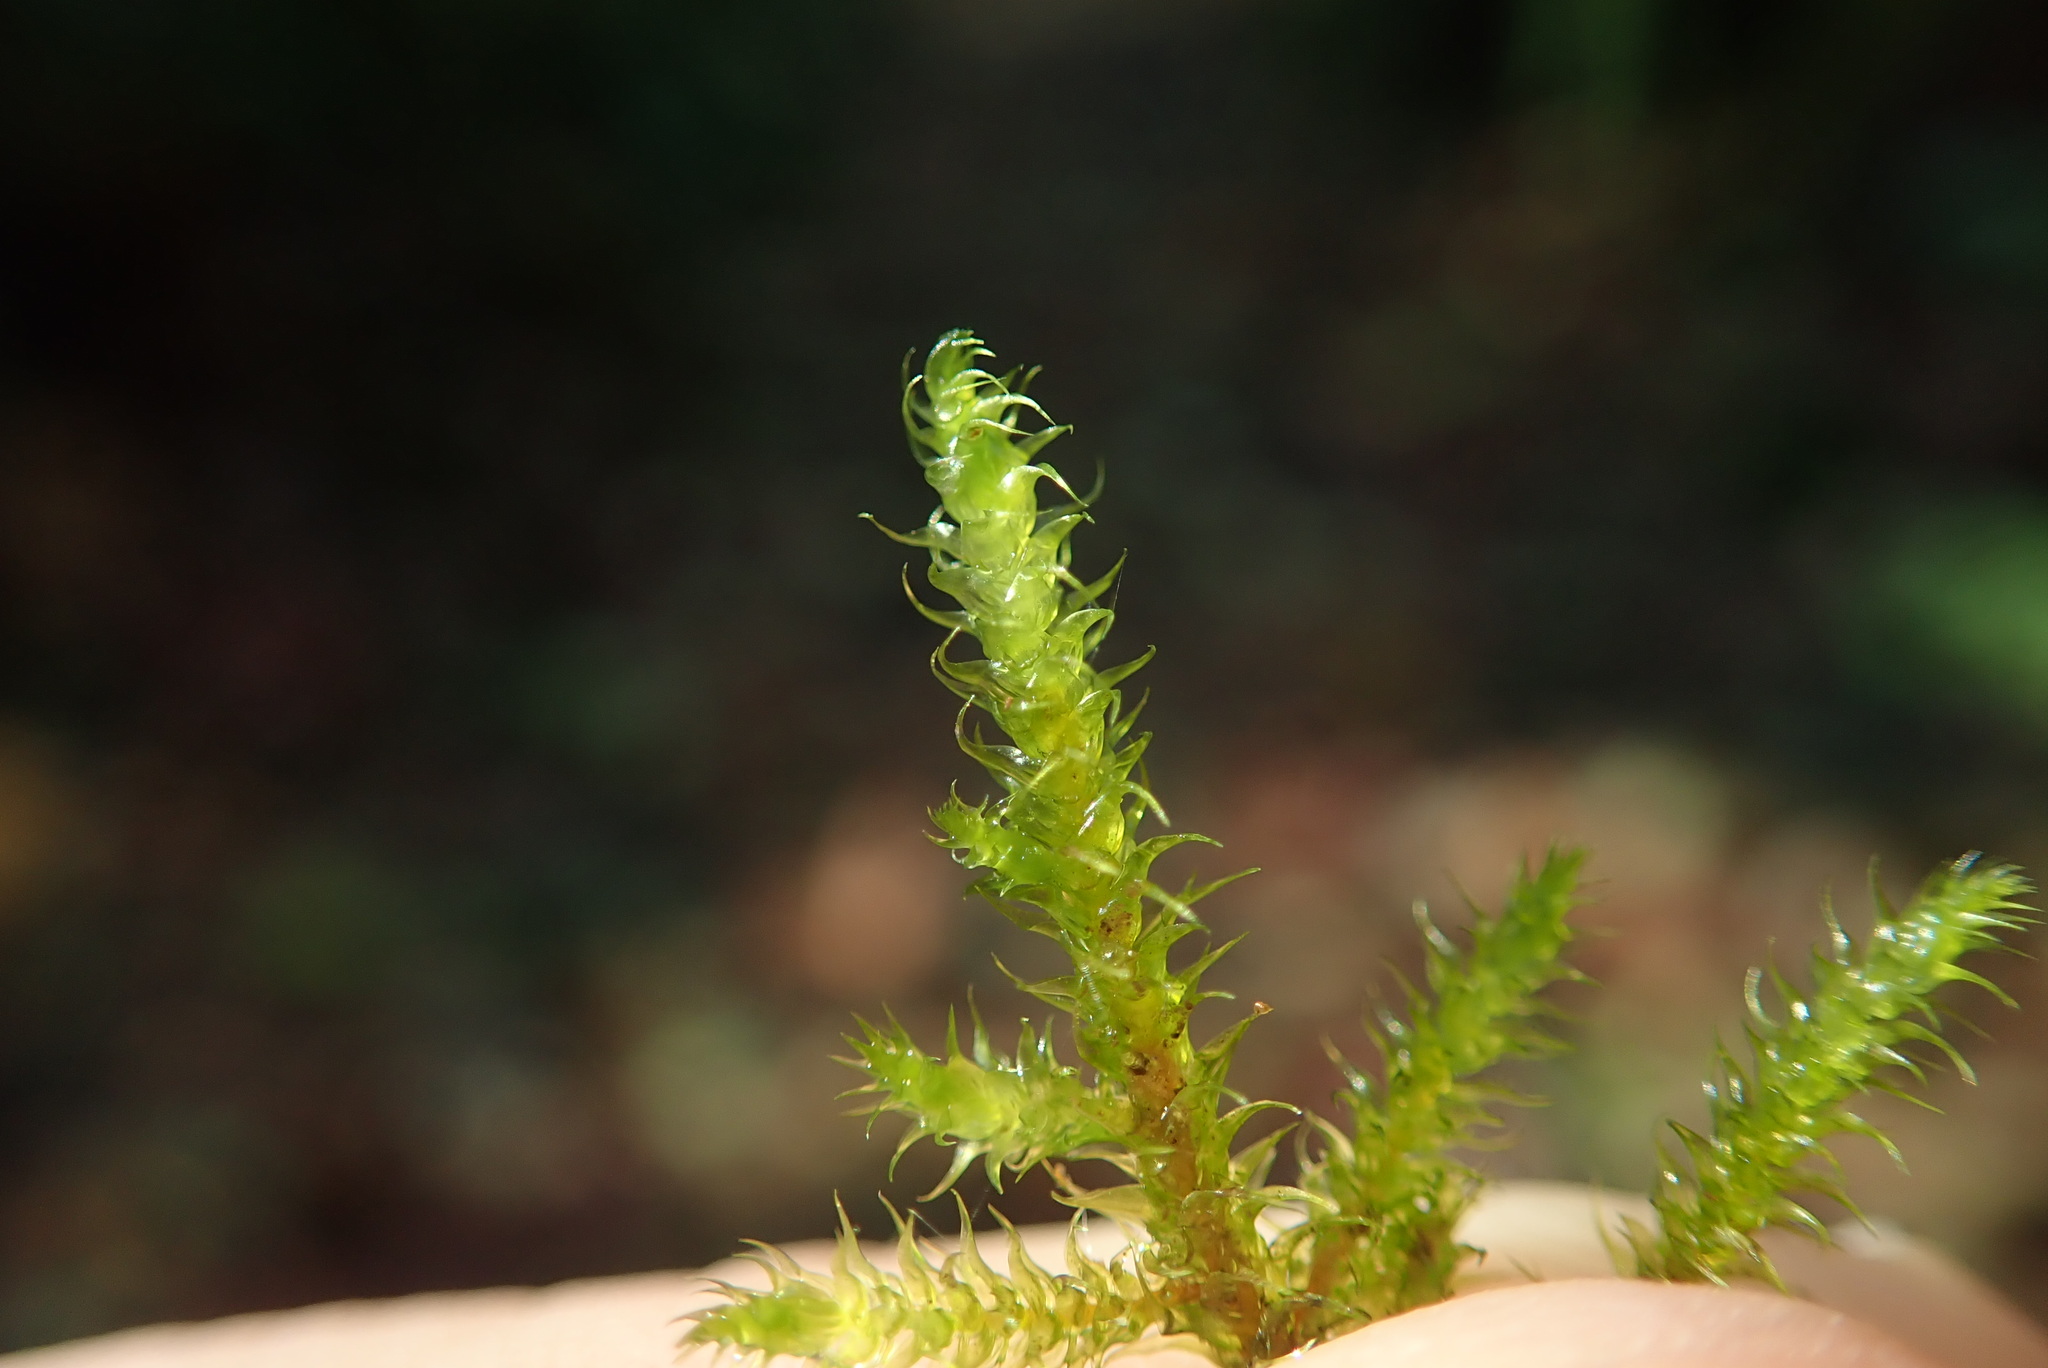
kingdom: Plantae
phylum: Bryophyta
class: Bryopsida
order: Hypnales
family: Hylocomiaceae
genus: Rhytidiadelphus
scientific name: Rhytidiadelphus loreus
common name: Lanky moss
